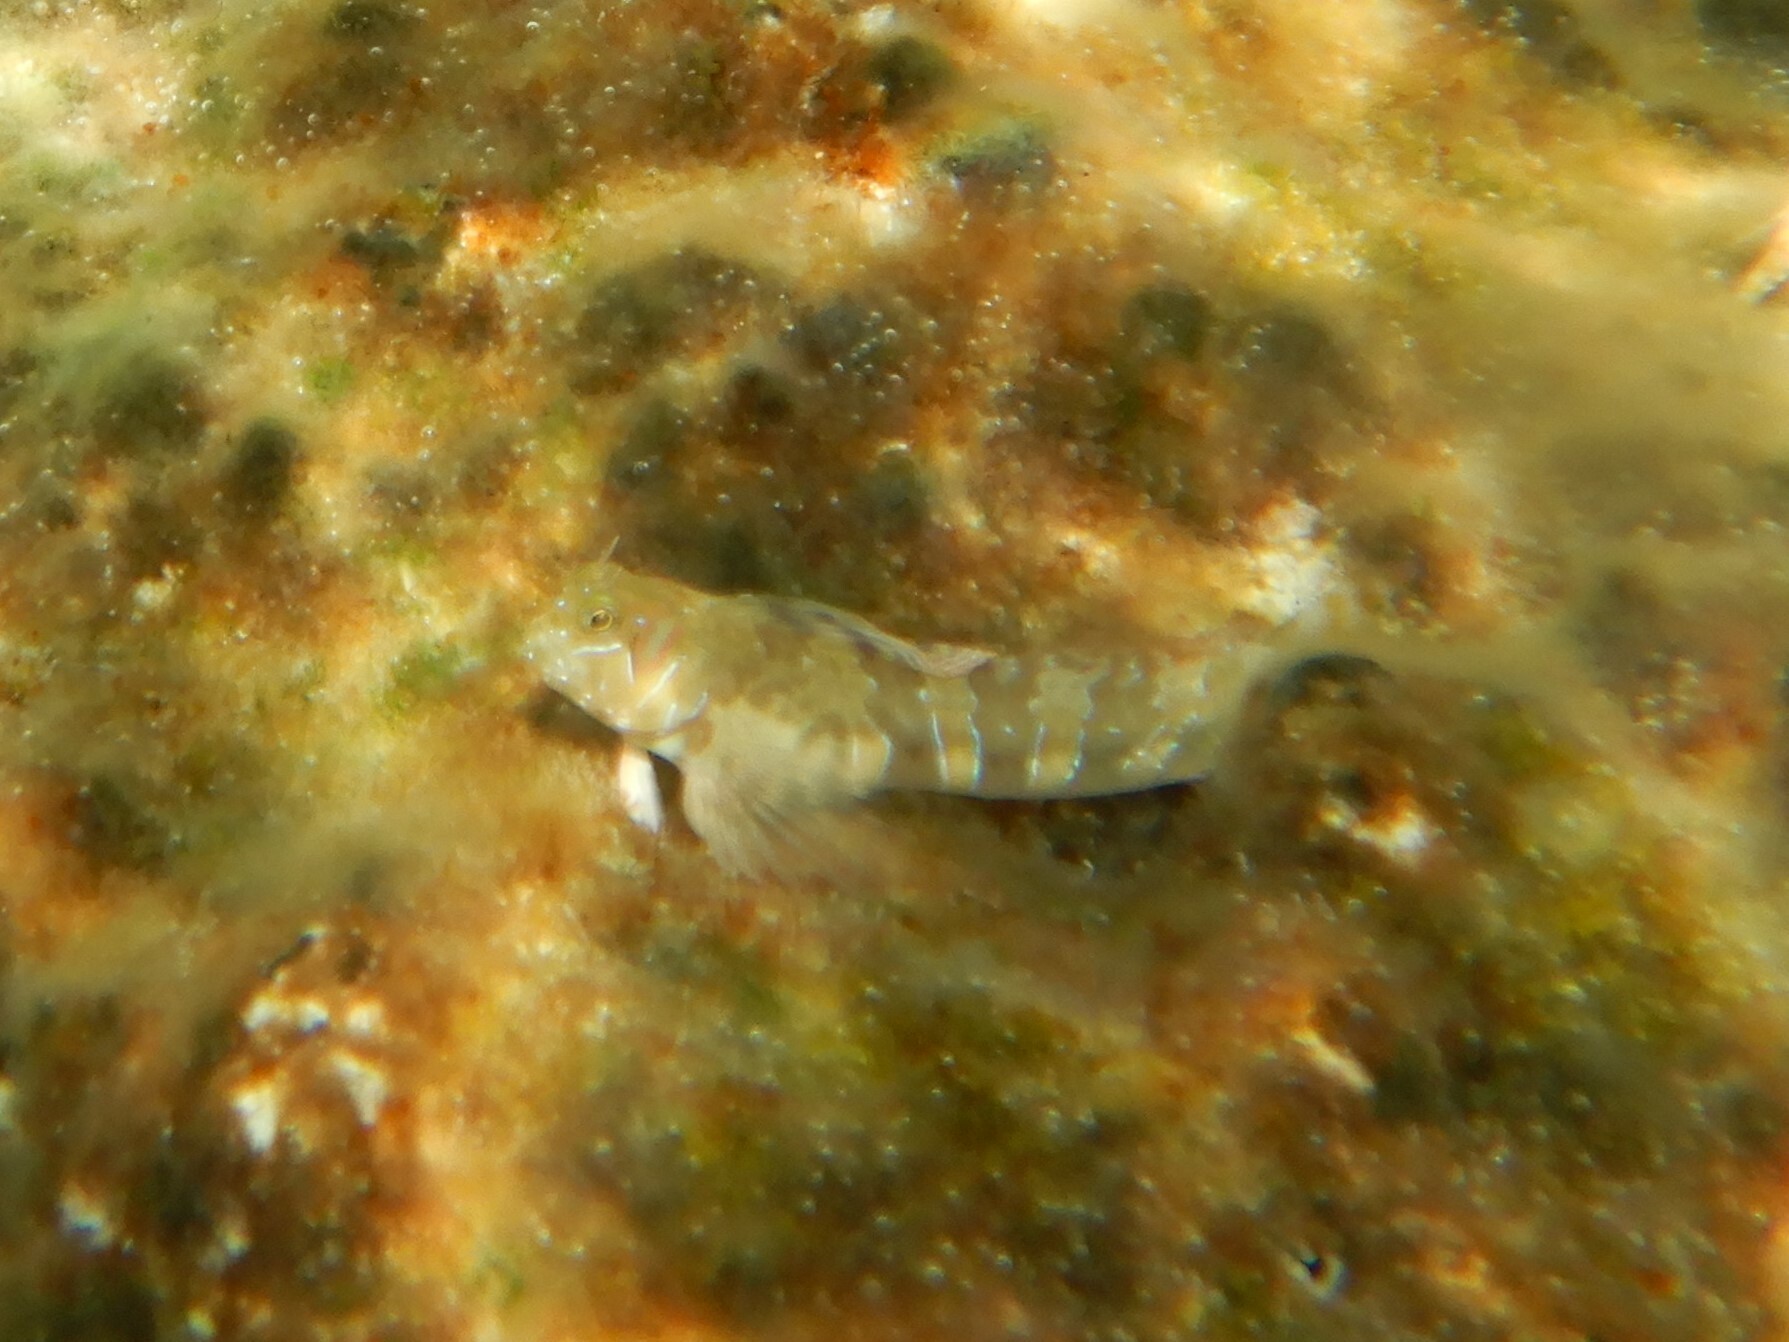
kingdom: Animalia
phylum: Chordata
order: Perciformes
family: Blenniidae
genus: Aidablennius
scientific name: Aidablennius sphynx
